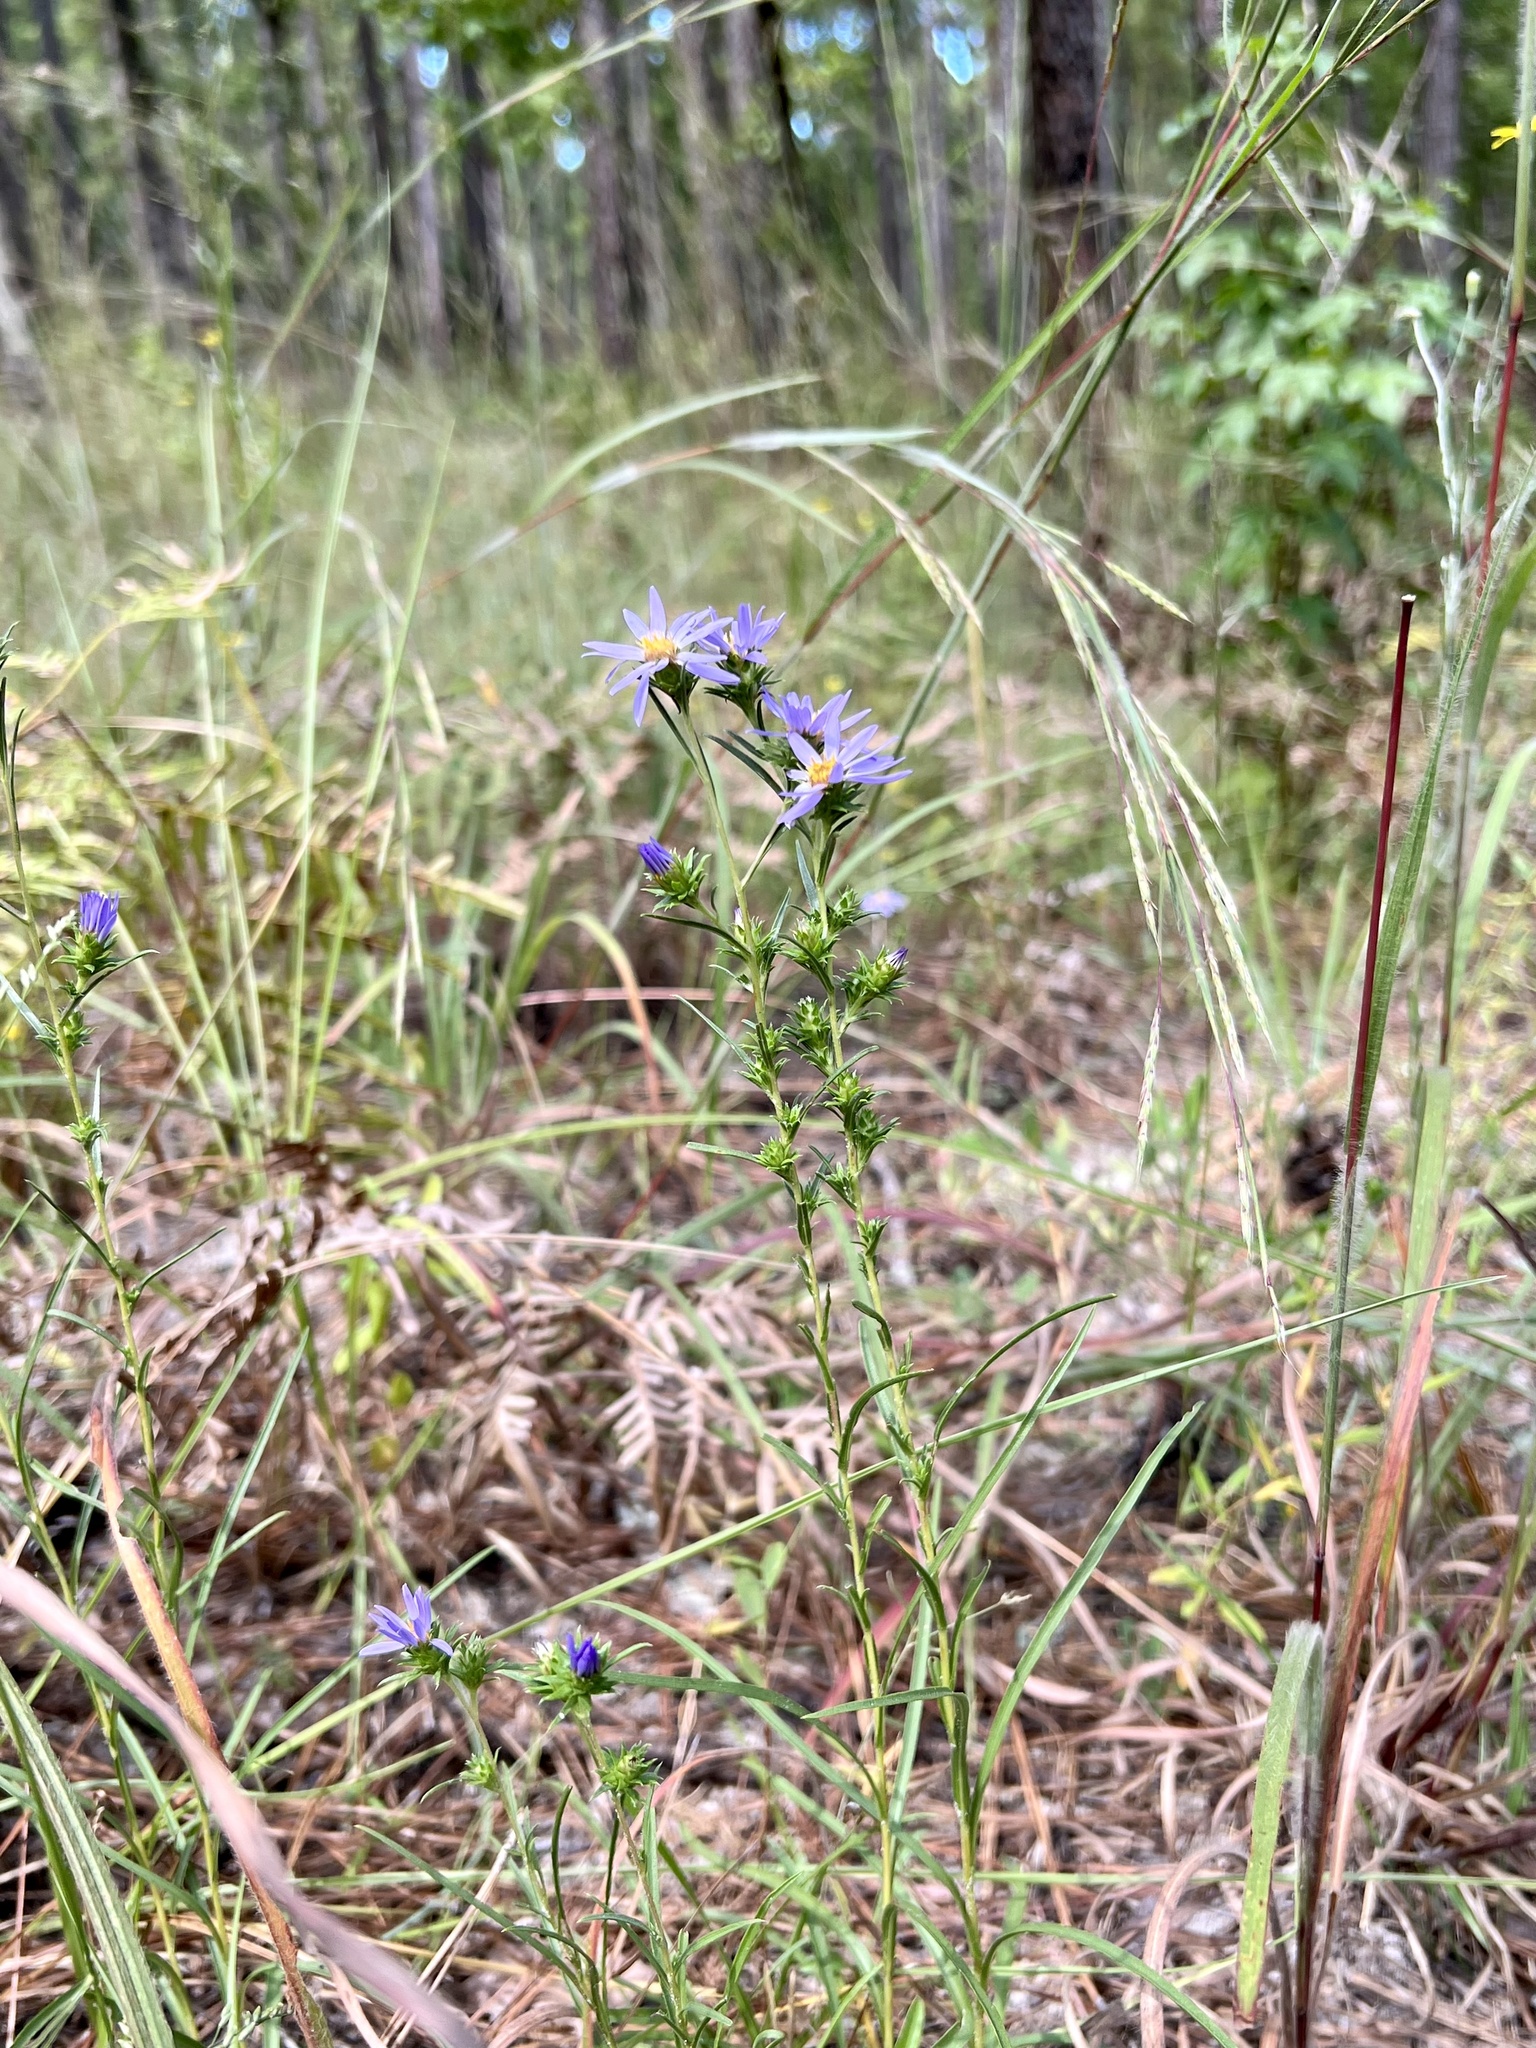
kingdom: Plantae
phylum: Tracheophyta
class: Magnoliopsida
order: Asterales
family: Asteraceae
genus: Eurybia
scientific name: Eurybia hemispherica
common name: Showy aster
